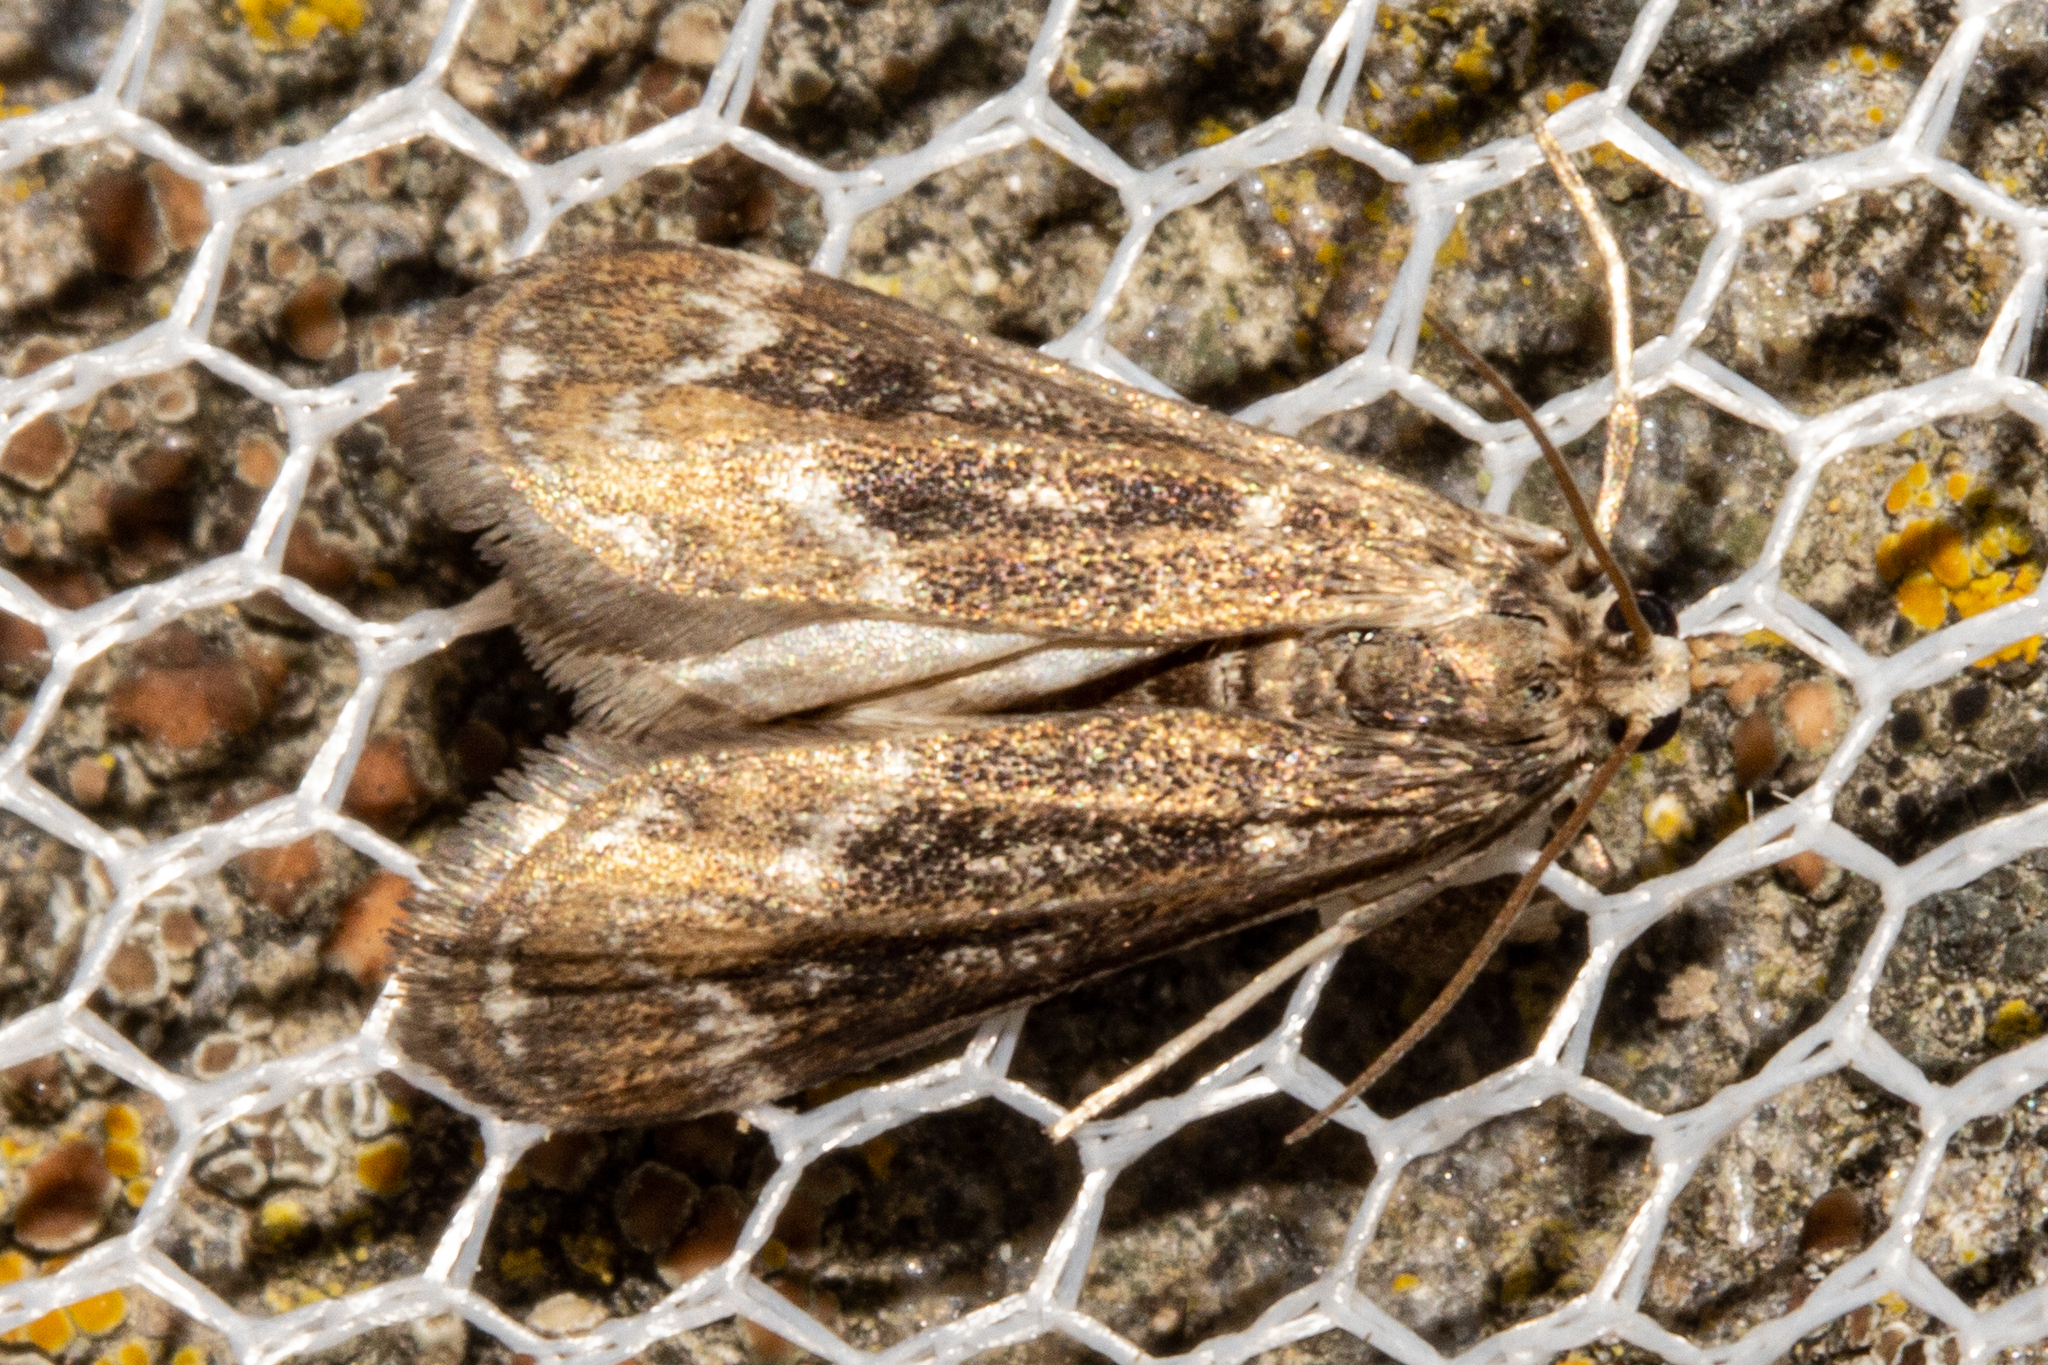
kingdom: Animalia
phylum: Arthropoda
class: Insecta
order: Lepidoptera
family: Crambidae
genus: Hygraula
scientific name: Hygraula nitens
